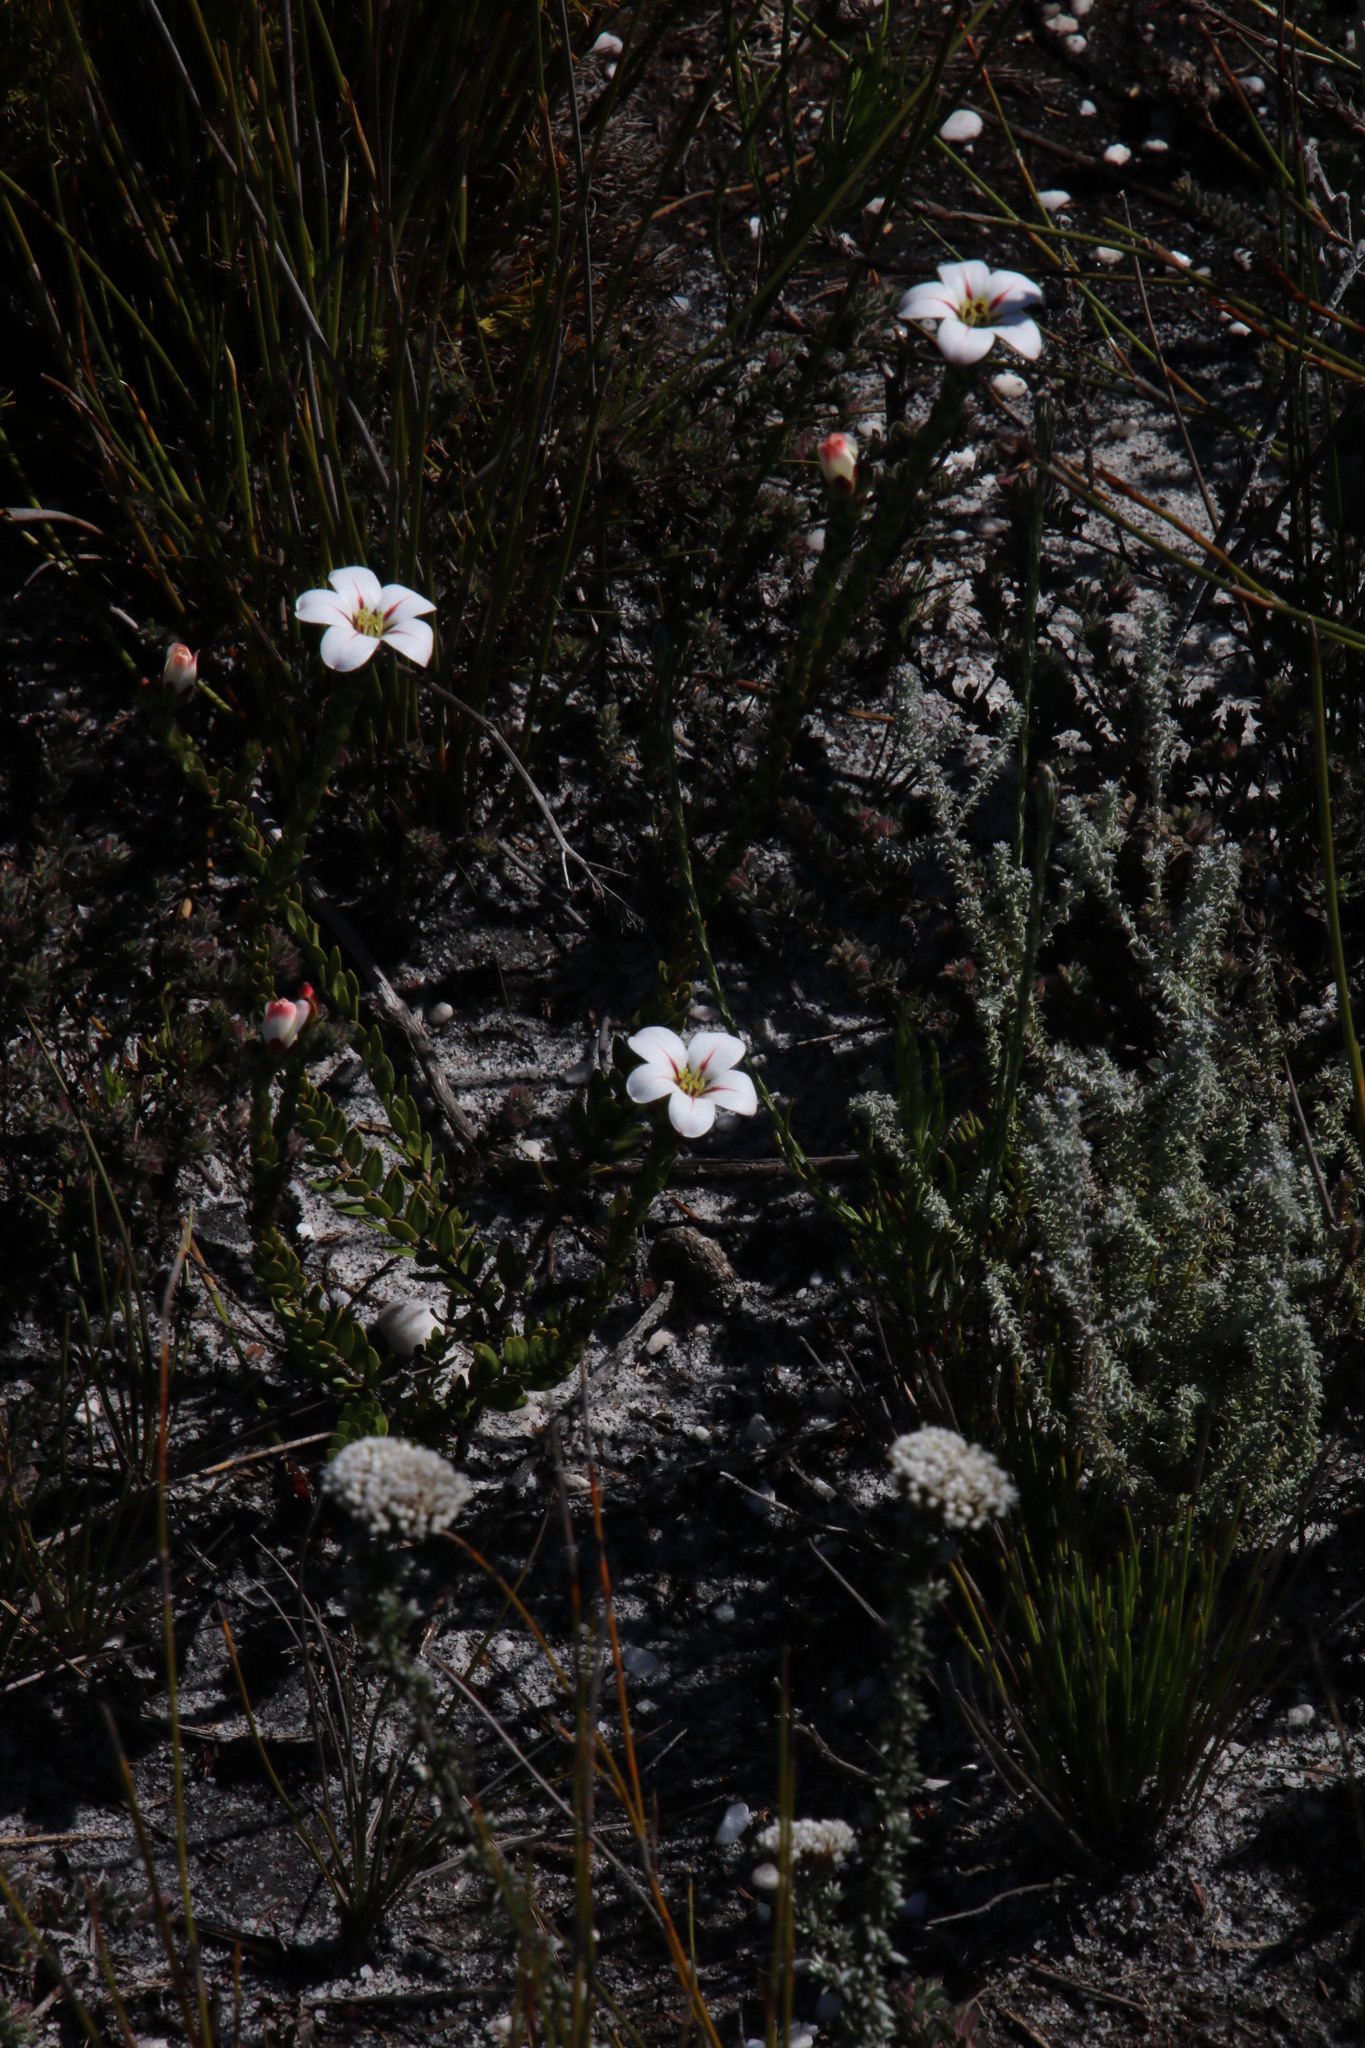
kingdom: Plantae
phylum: Tracheophyta
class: Magnoliopsida
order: Sapindales
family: Rutaceae
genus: Adenandra
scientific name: Adenandra villosa
